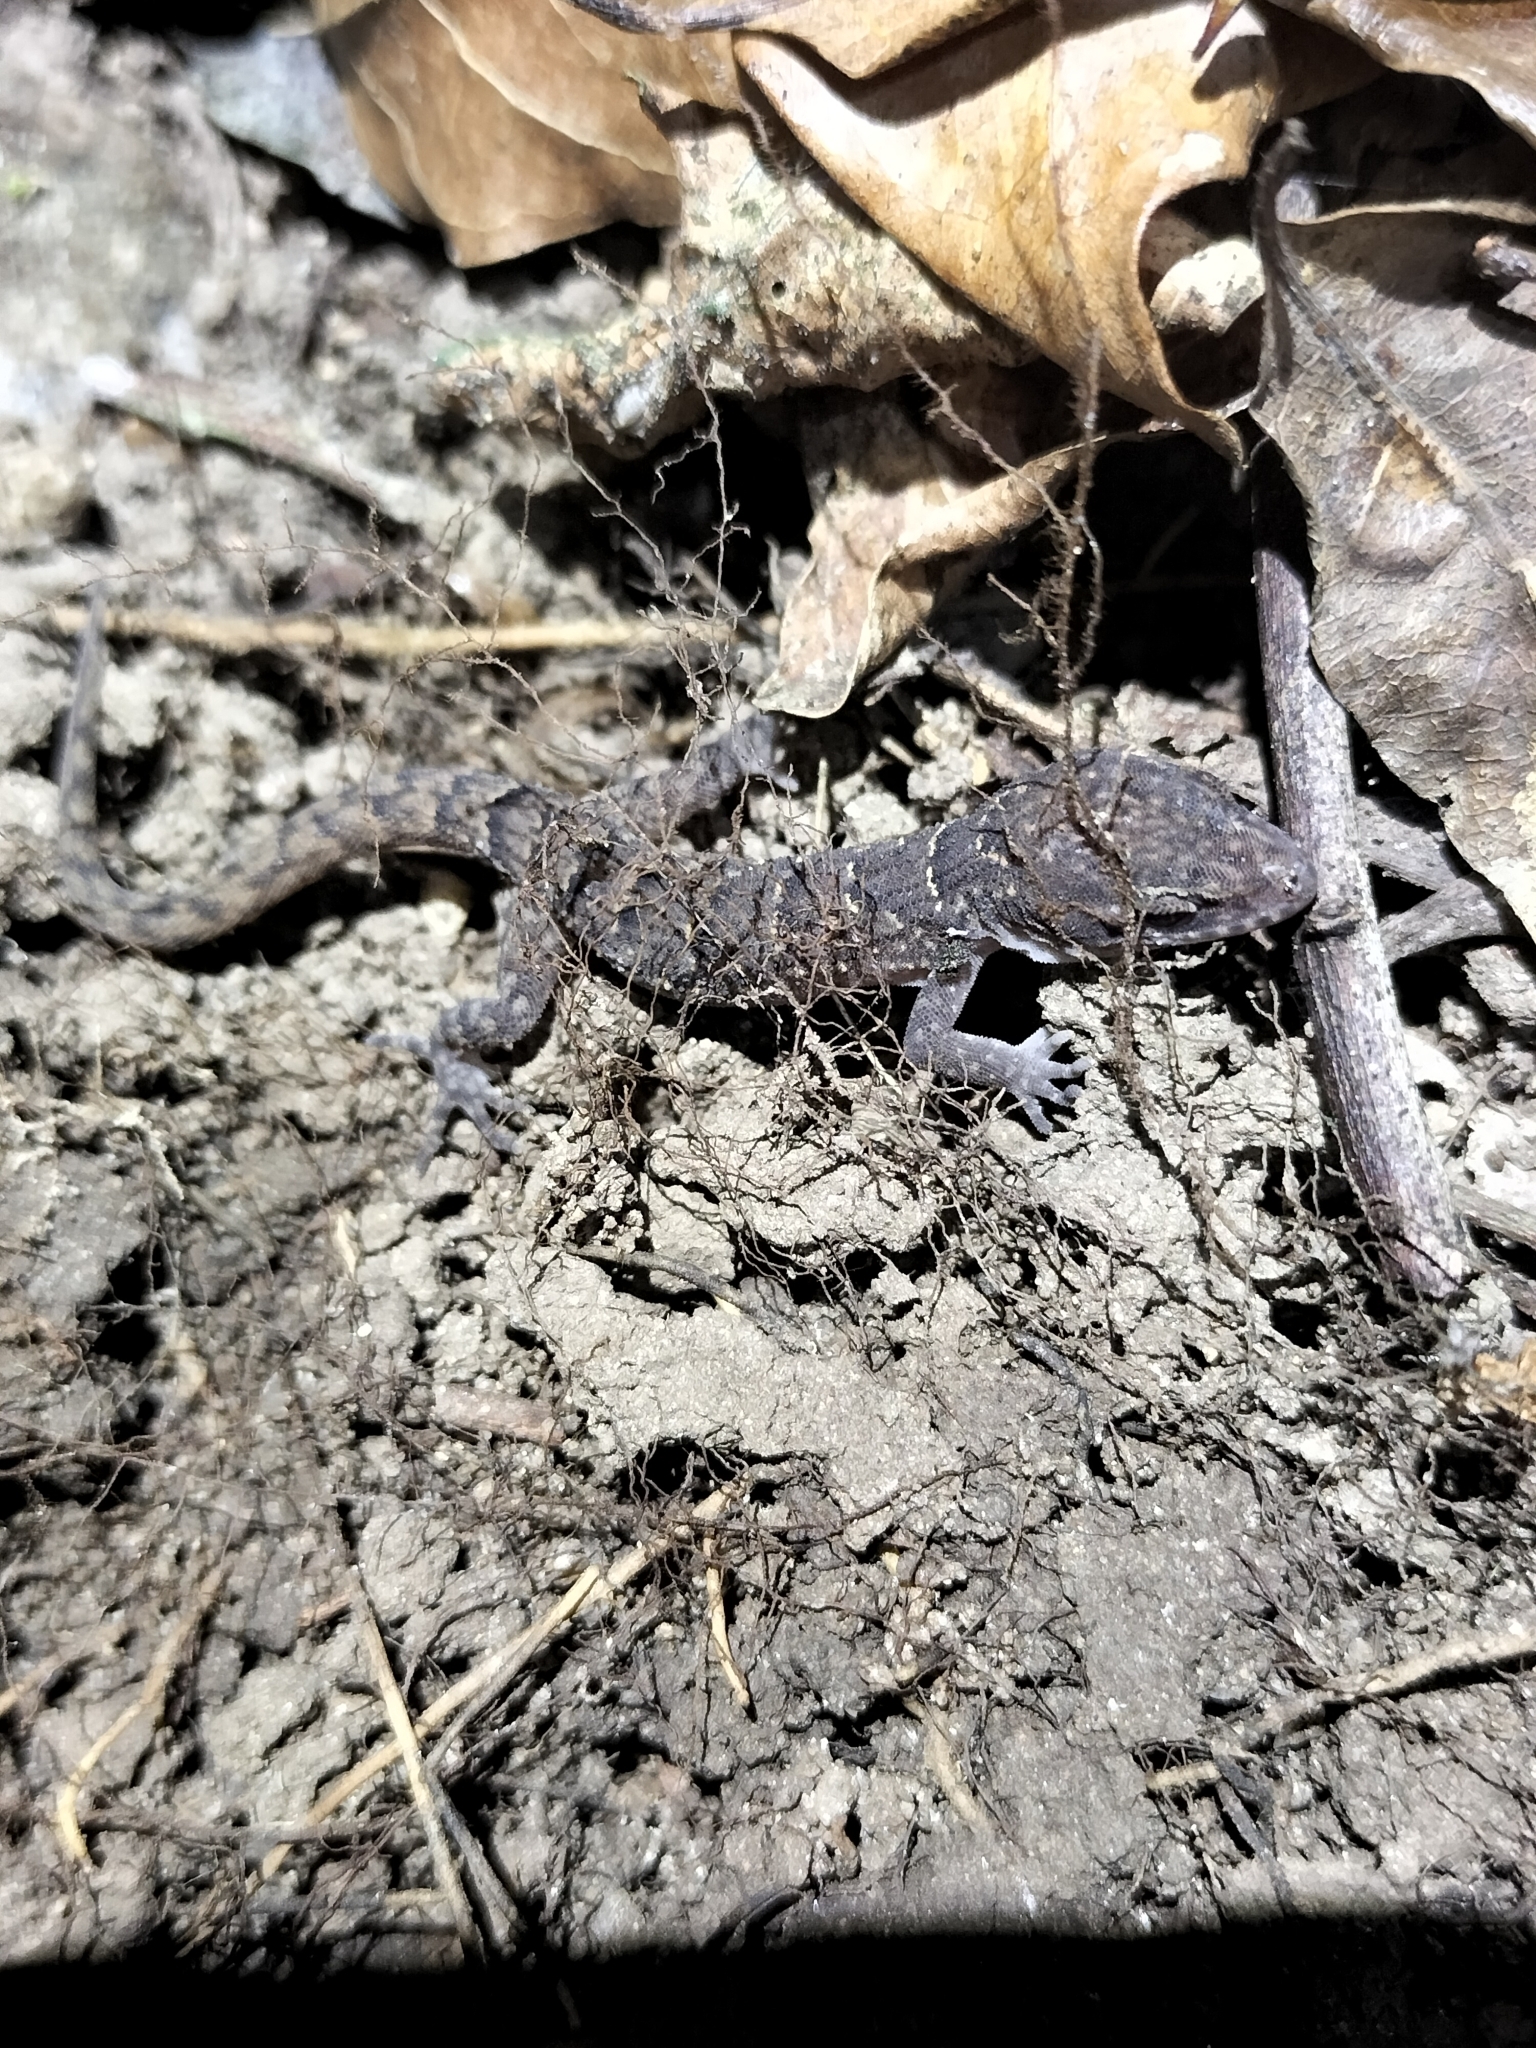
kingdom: Animalia
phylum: Chordata
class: Squamata
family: Gekkonidae
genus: Nactus
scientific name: Nactus cheverti
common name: Chevert's gecko
